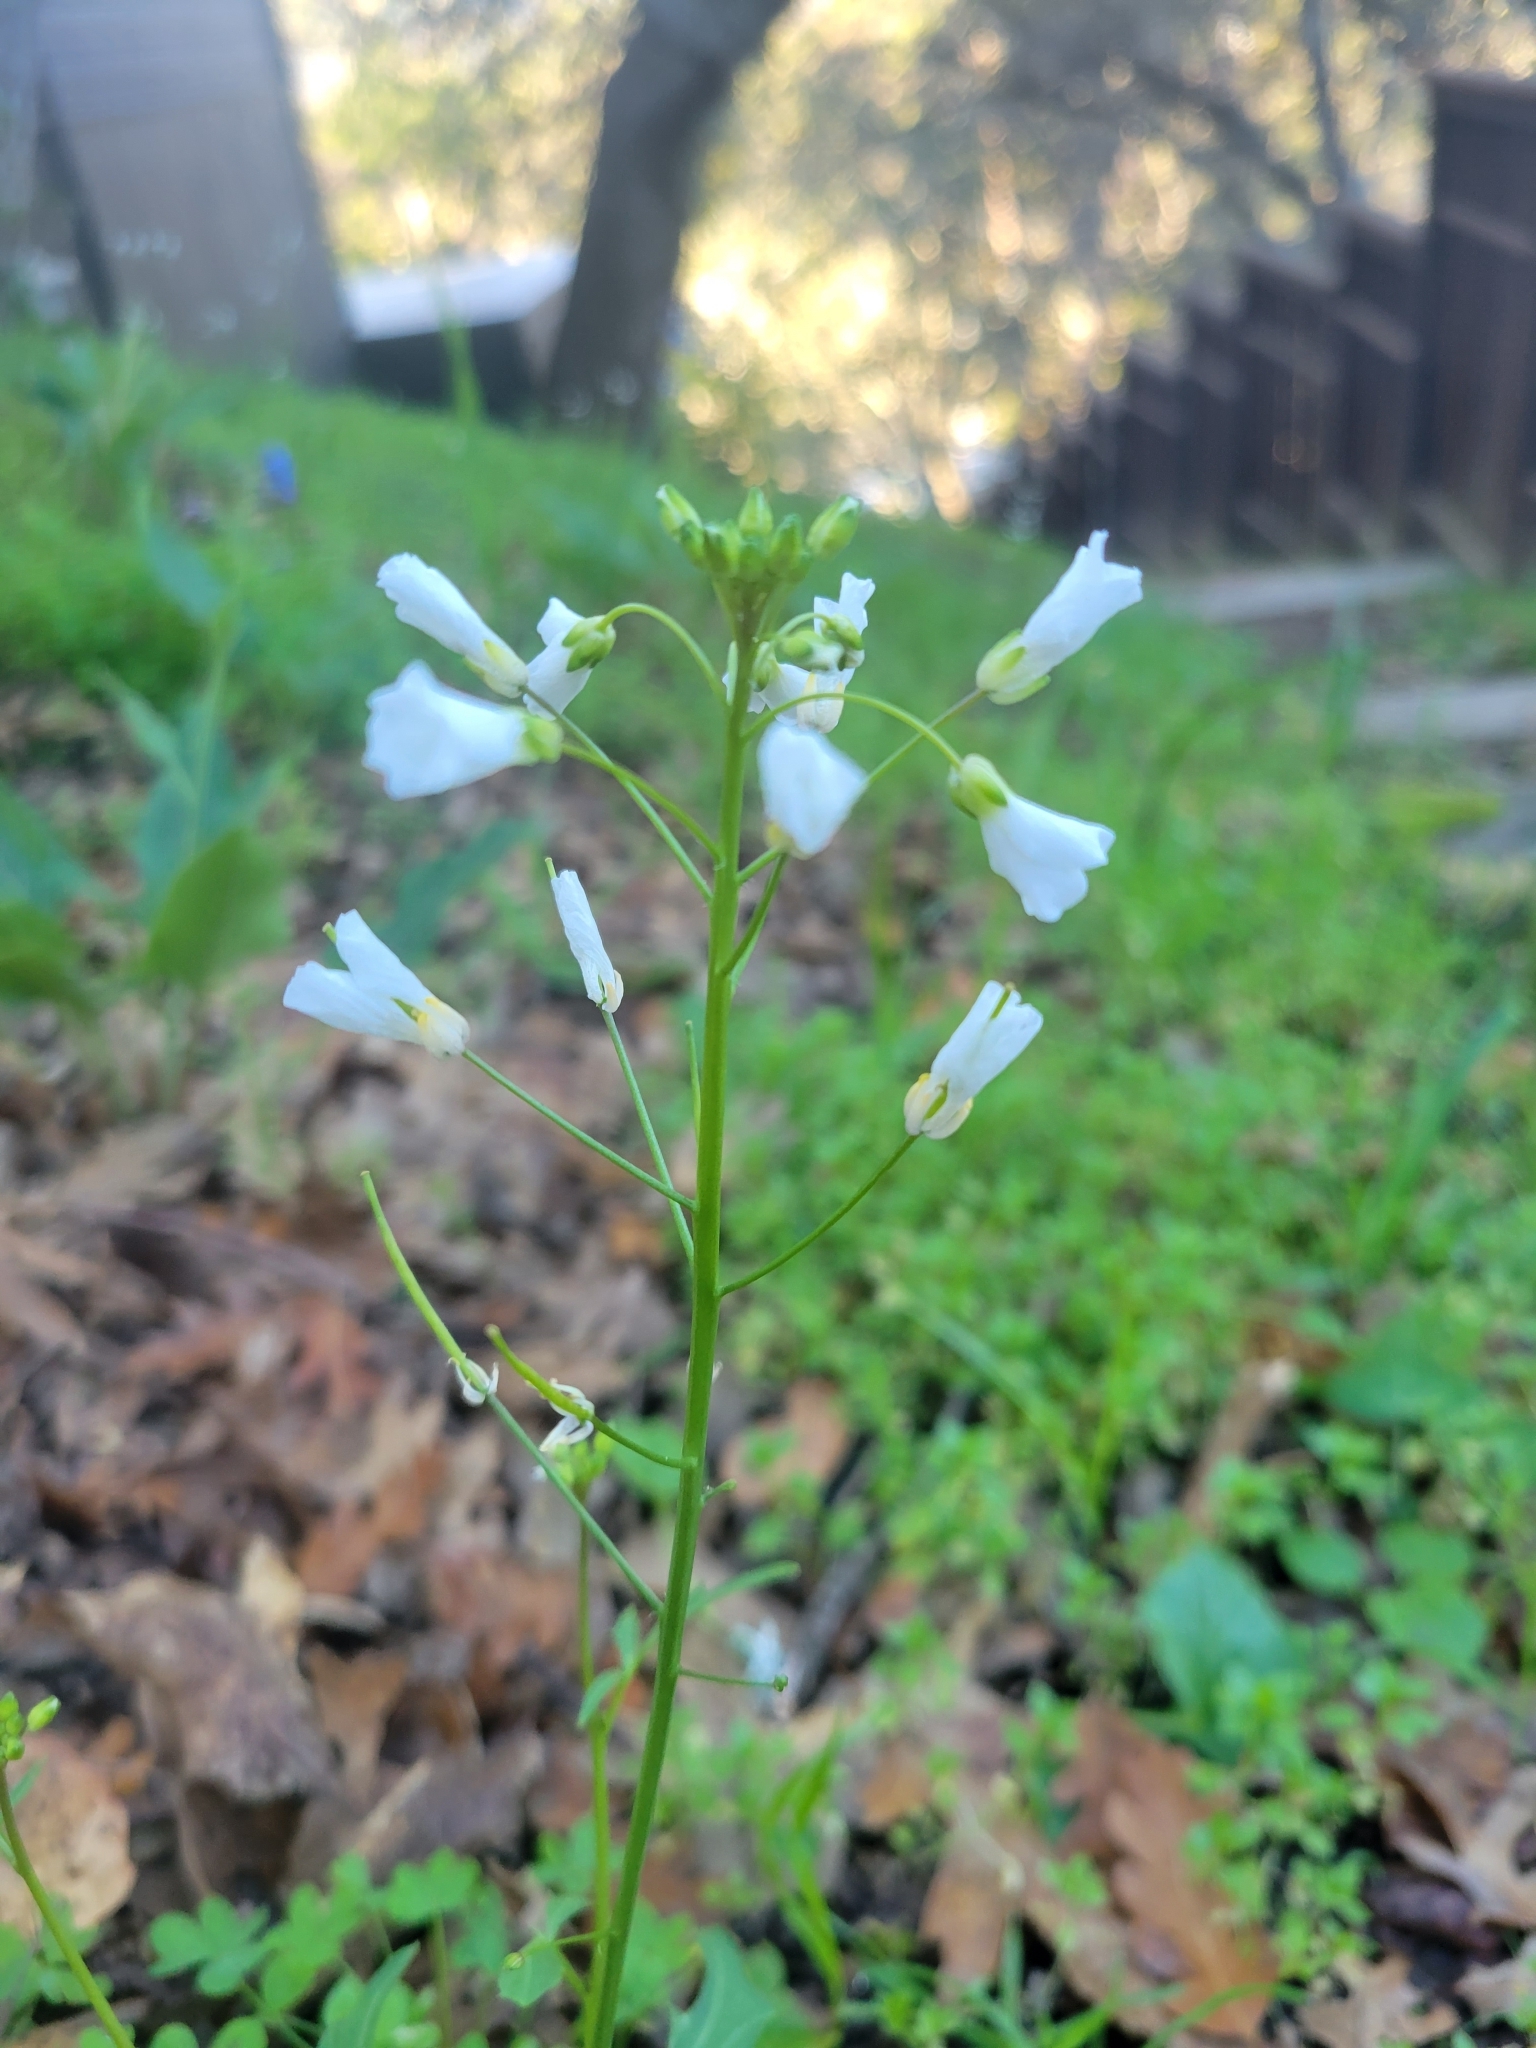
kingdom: Plantae
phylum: Tracheophyta
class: Magnoliopsida
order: Brassicales
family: Brassicaceae
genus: Cardamine
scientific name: Cardamine californica
